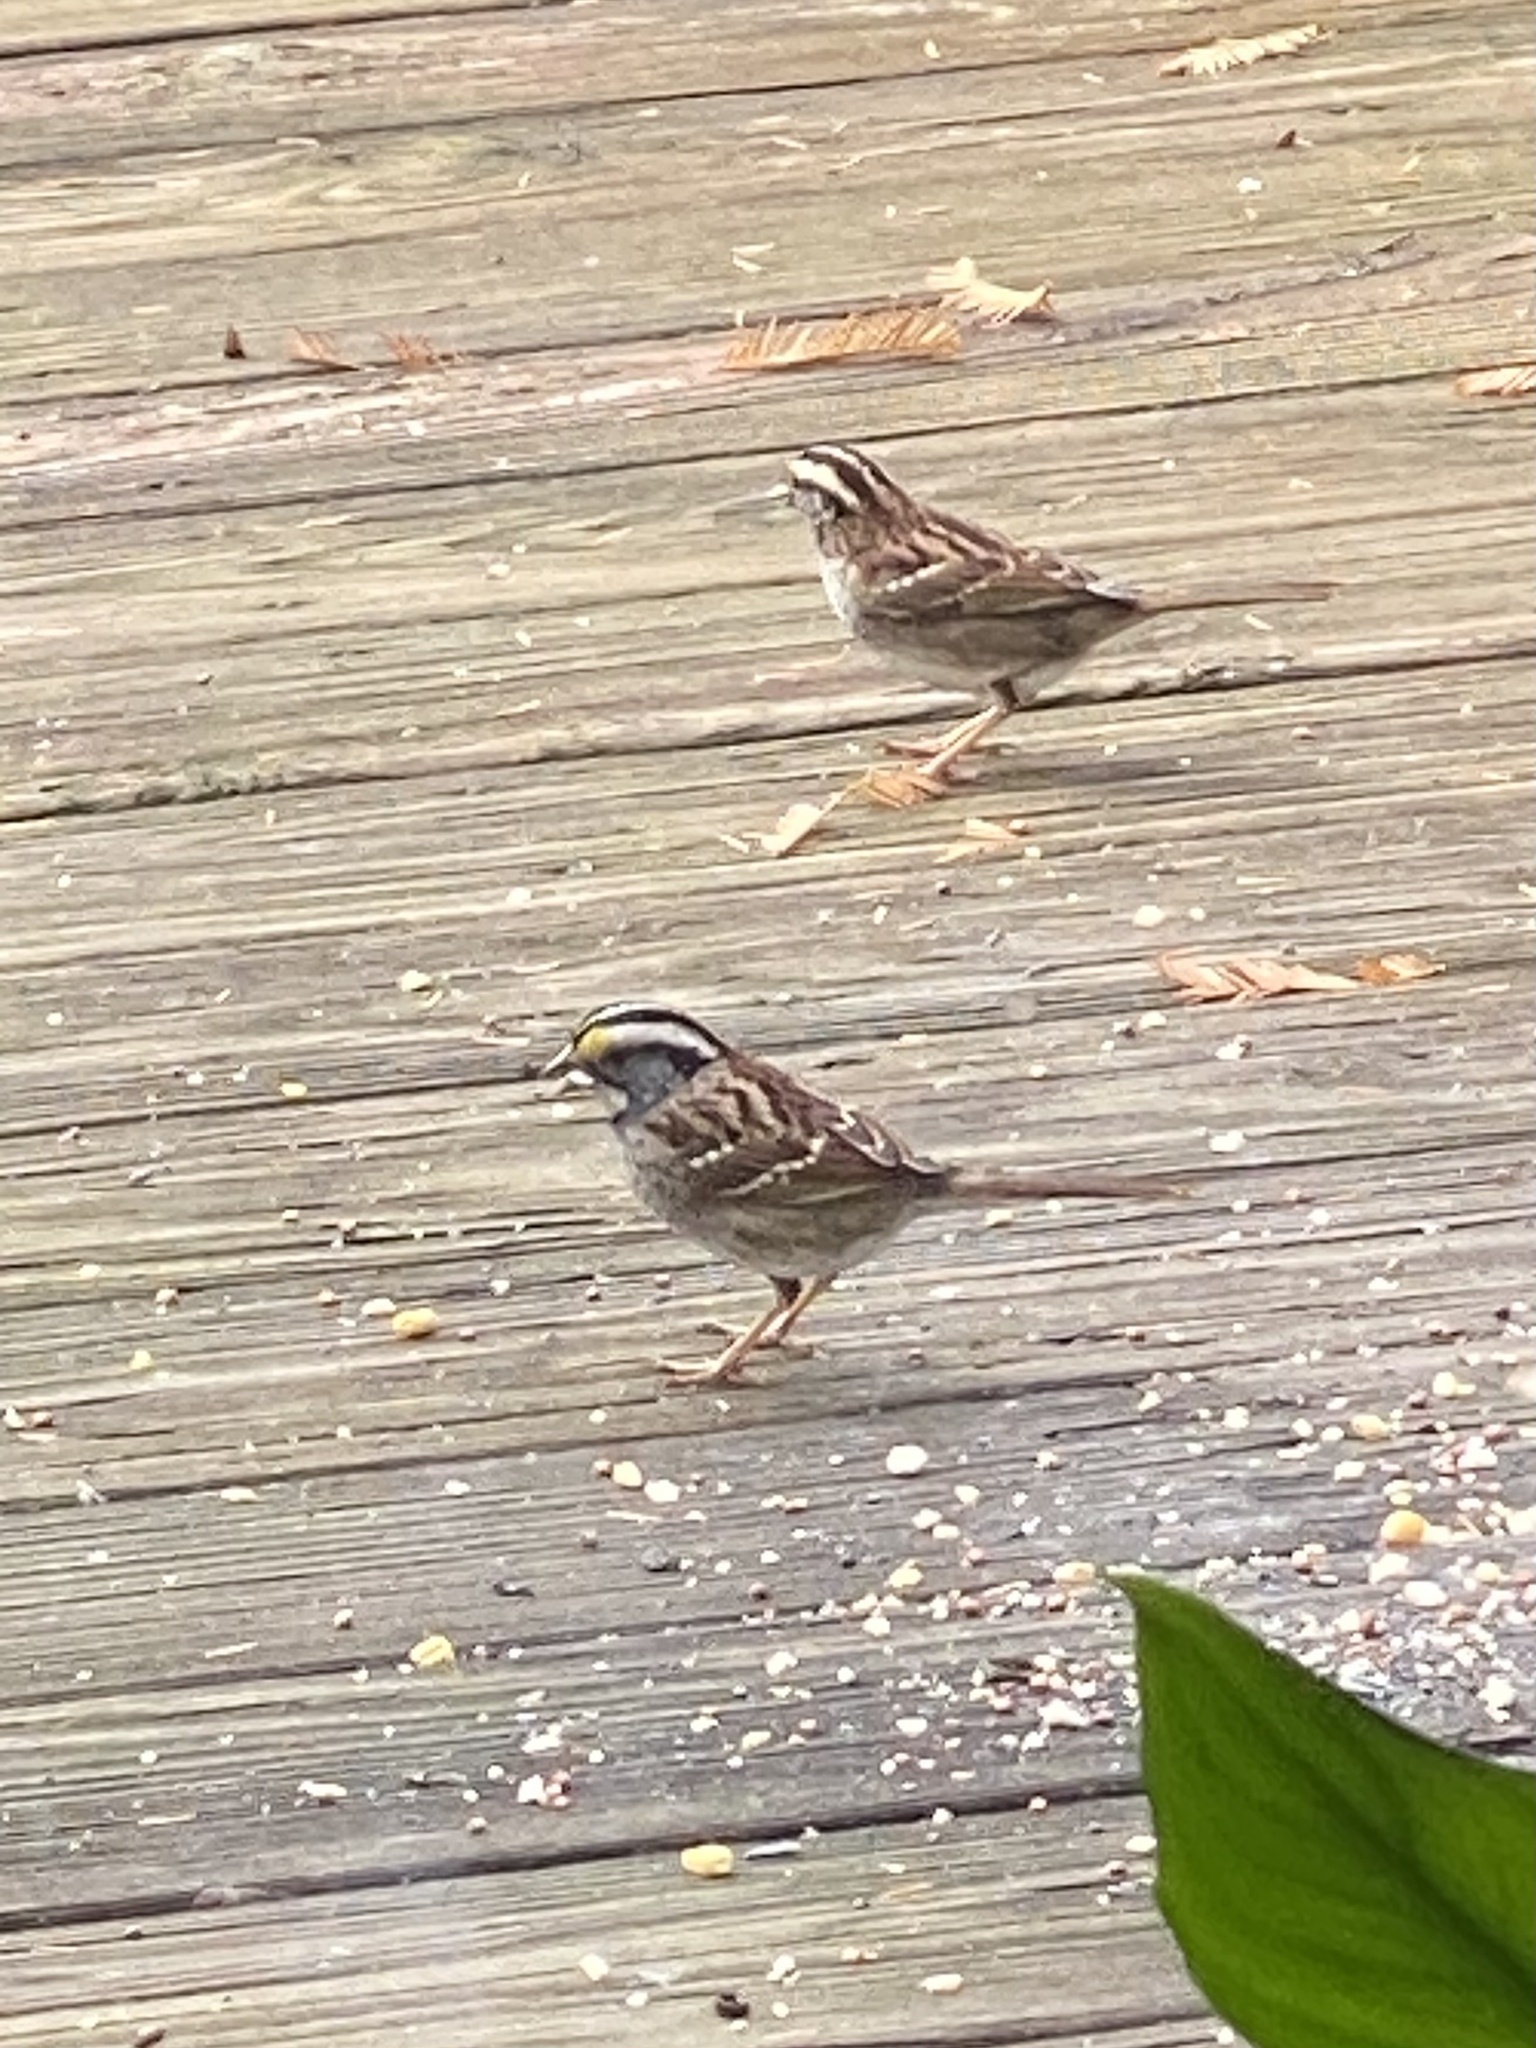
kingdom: Animalia
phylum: Chordata
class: Aves
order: Passeriformes
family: Passerellidae
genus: Zonotrichia
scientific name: Zonotrichia albicollis
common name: White-throated sparrow
